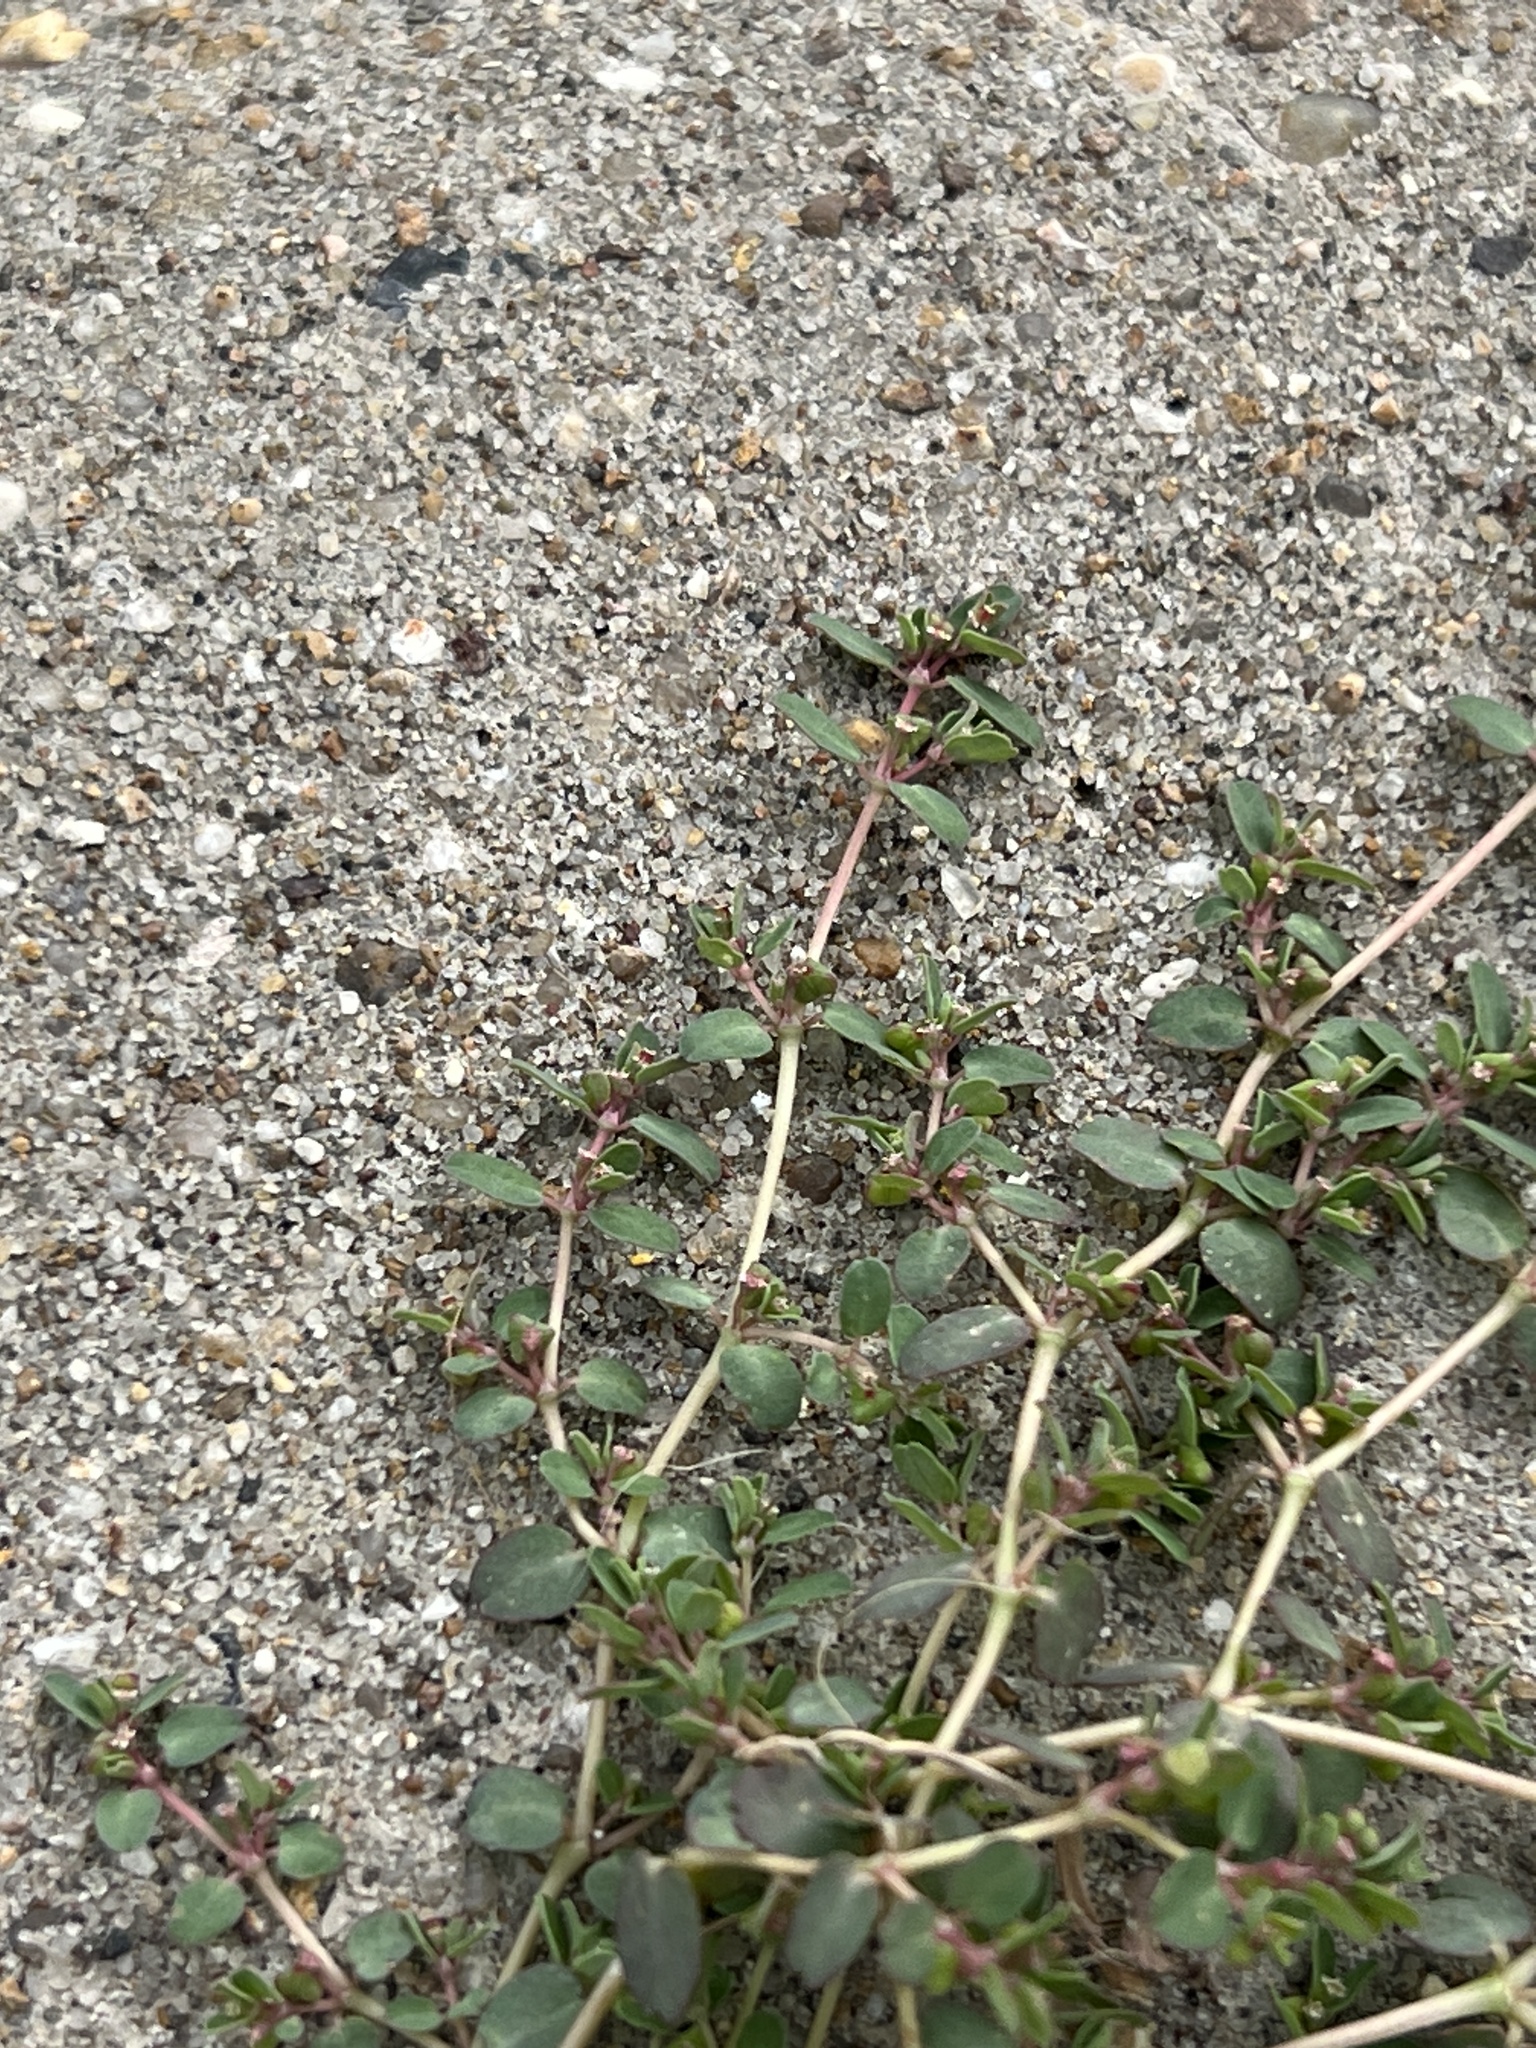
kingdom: Plantae
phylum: Tracheophyta
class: Magnoliopsida
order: Malpighiales
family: Euphorbiaceae
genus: Euphorbia
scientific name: Euphorbia serpens
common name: Matted sandmat
